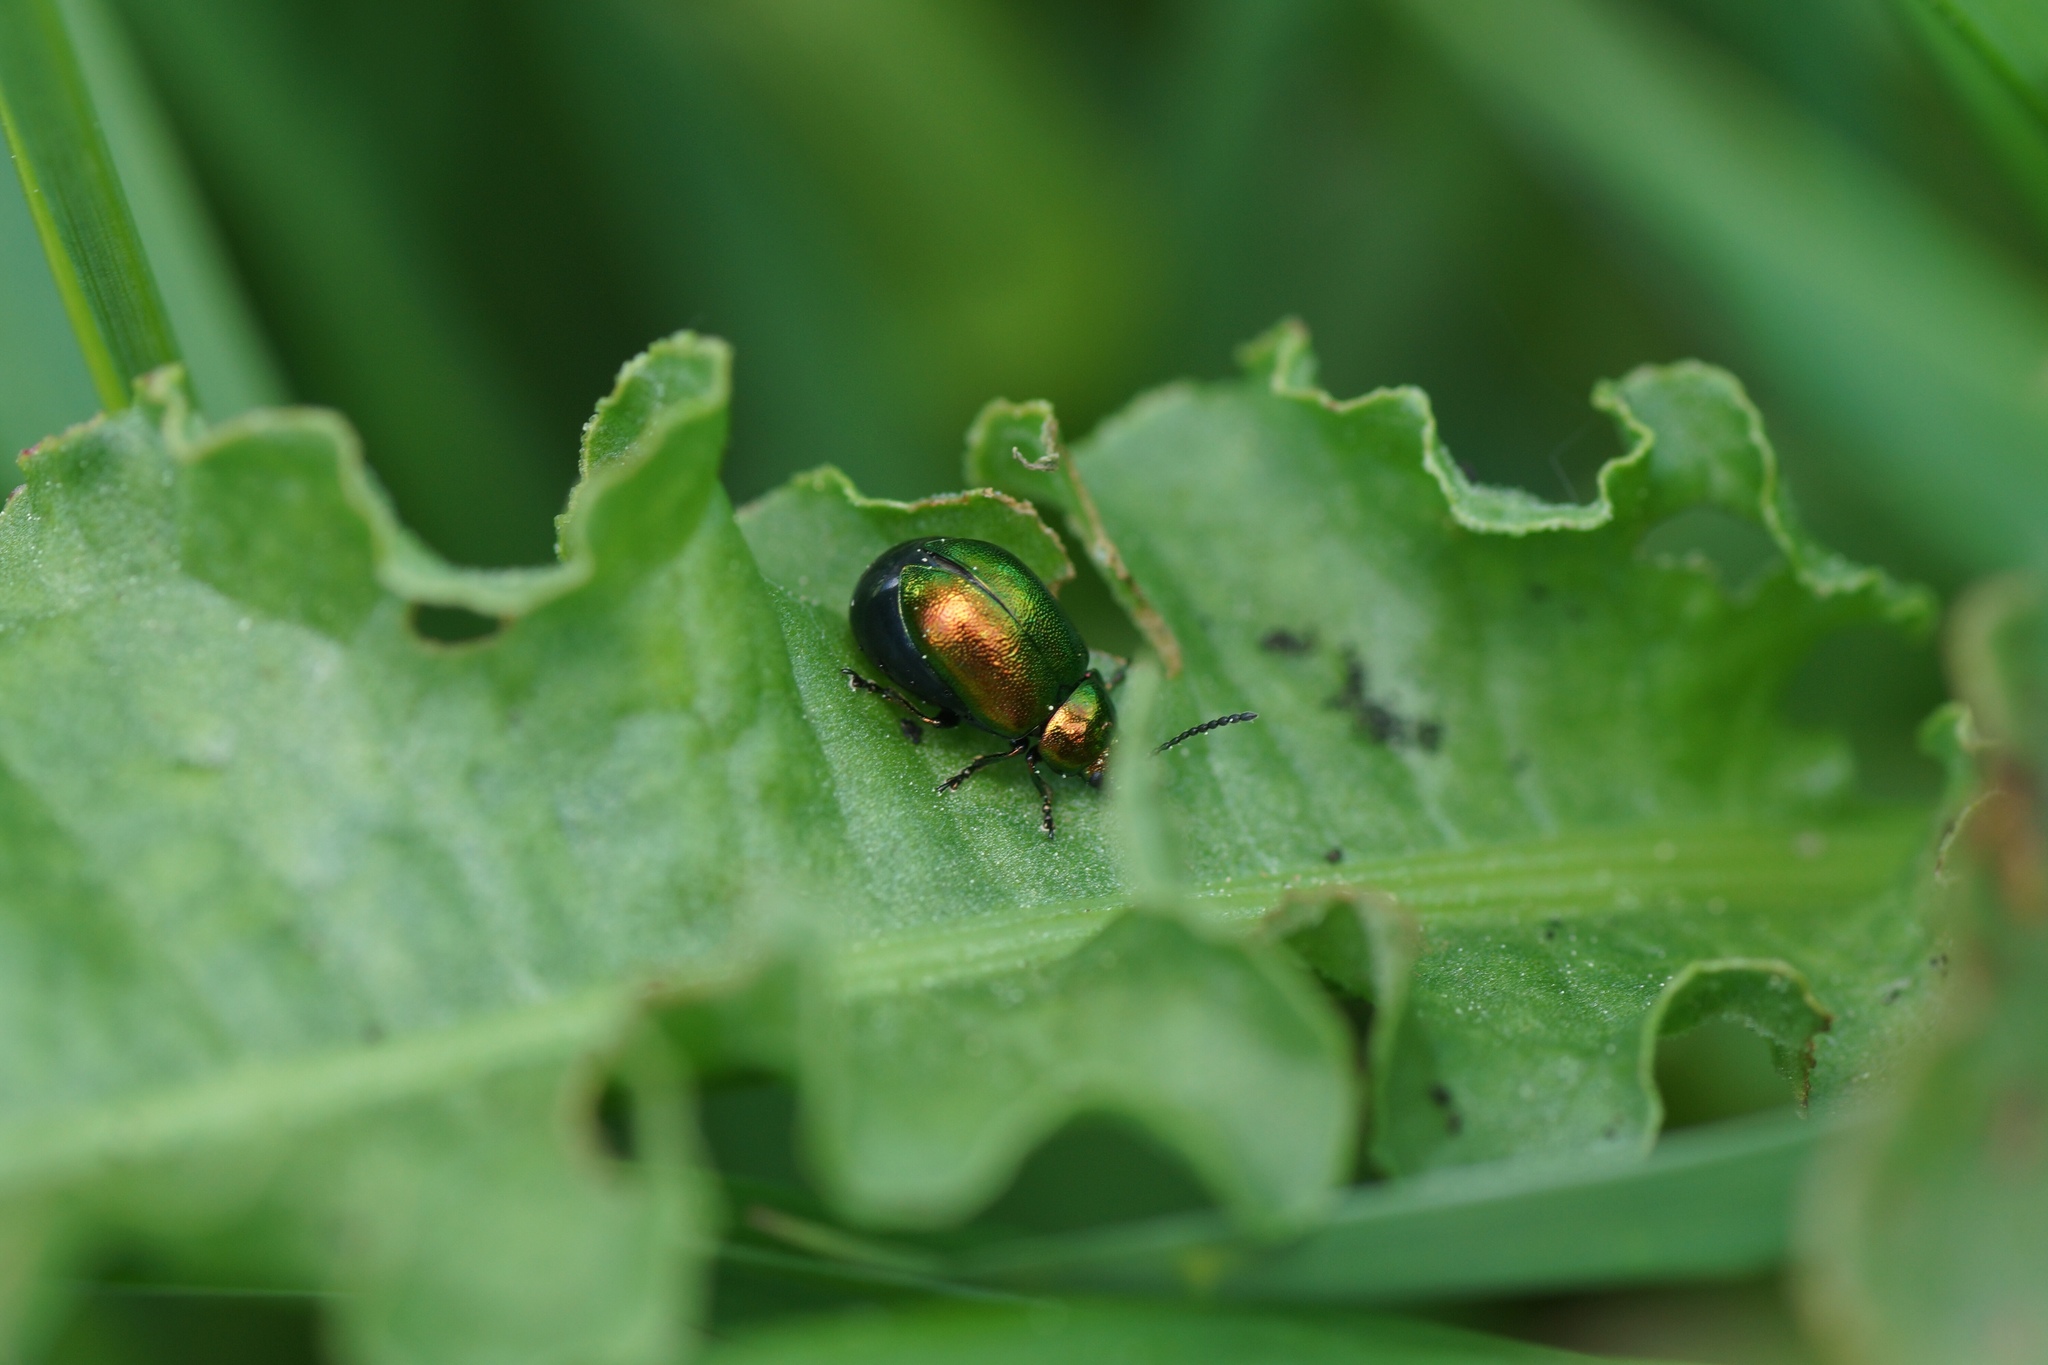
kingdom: Animalia
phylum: Arthropoda
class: Insecta
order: Coleoptera
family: Chrysomelidae
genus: Gastrophysa
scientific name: Gastrophysa viridula
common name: Green dock beetle
